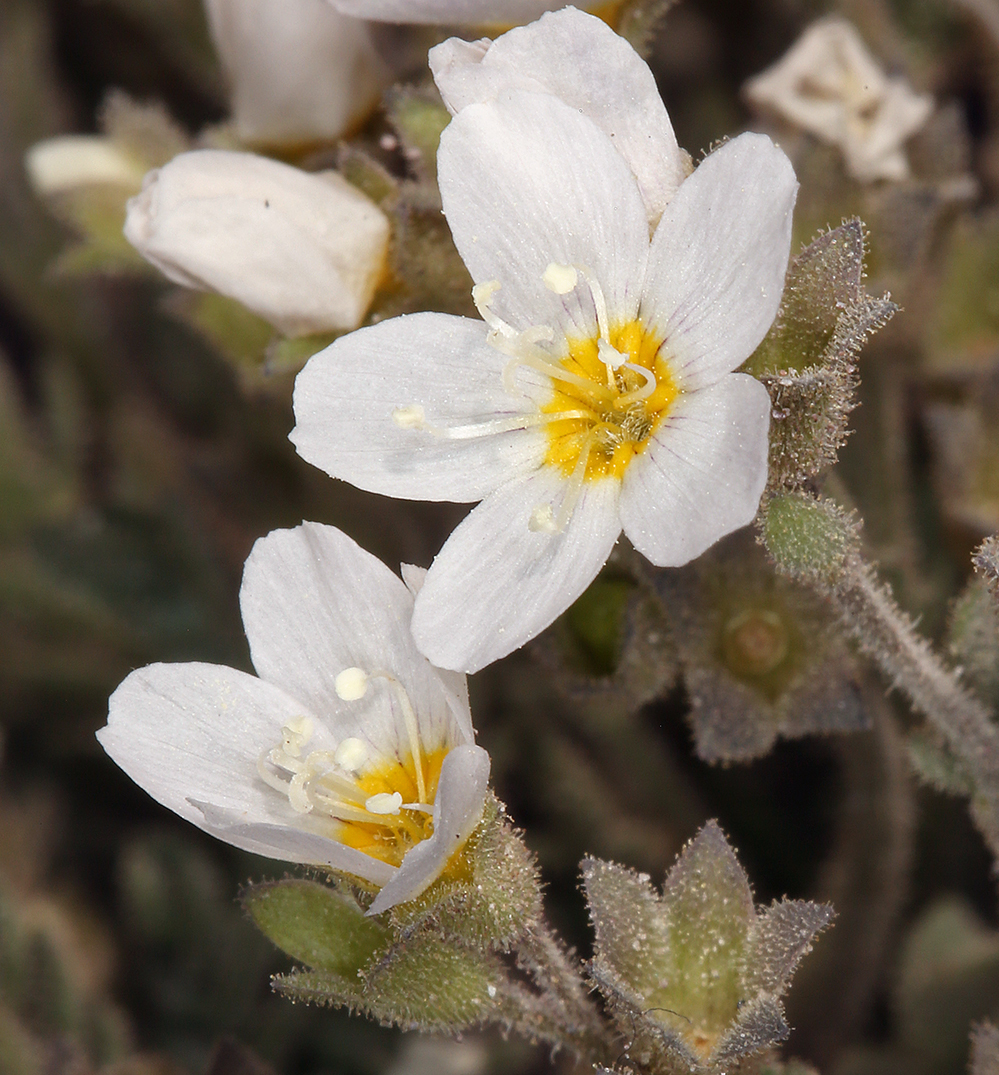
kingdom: Plantae
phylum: Tracheophyta
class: Magnoliopsida
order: Ericales
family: Polemoniaceae
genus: Polemonium
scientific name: Polemonium pulcherrimum
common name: Short jacob's-ladder
